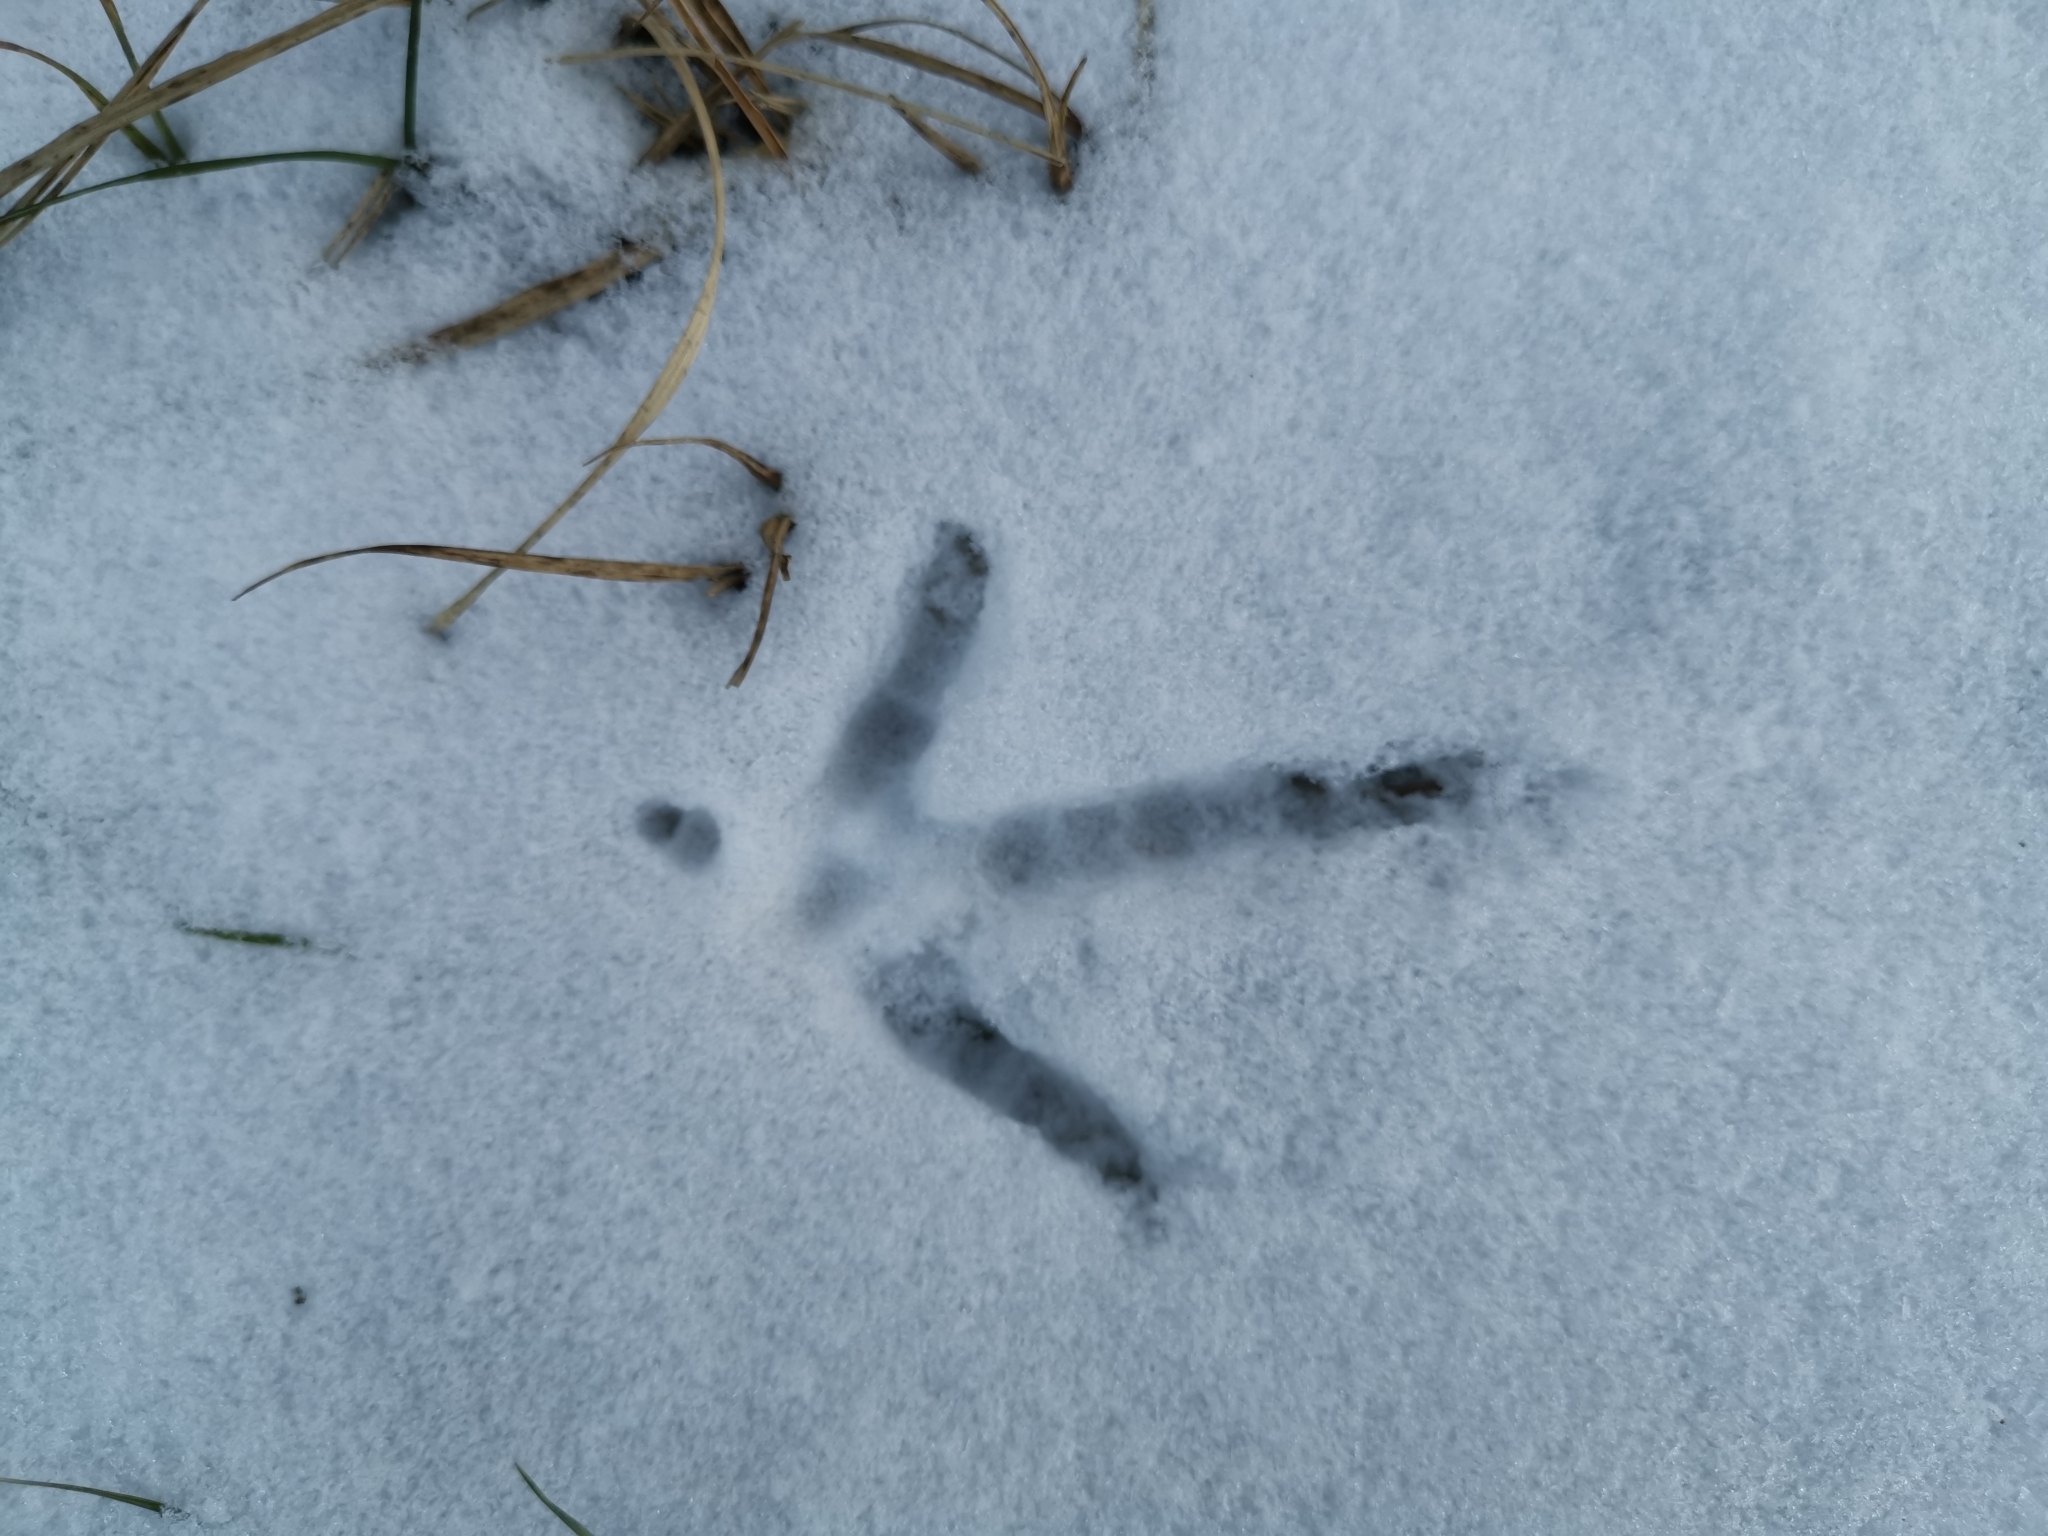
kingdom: Animalia
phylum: Chordata
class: Aves
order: Galliformes
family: Phasianidae
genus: Phasianus
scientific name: Phasianus colchicus
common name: Common pheasant
